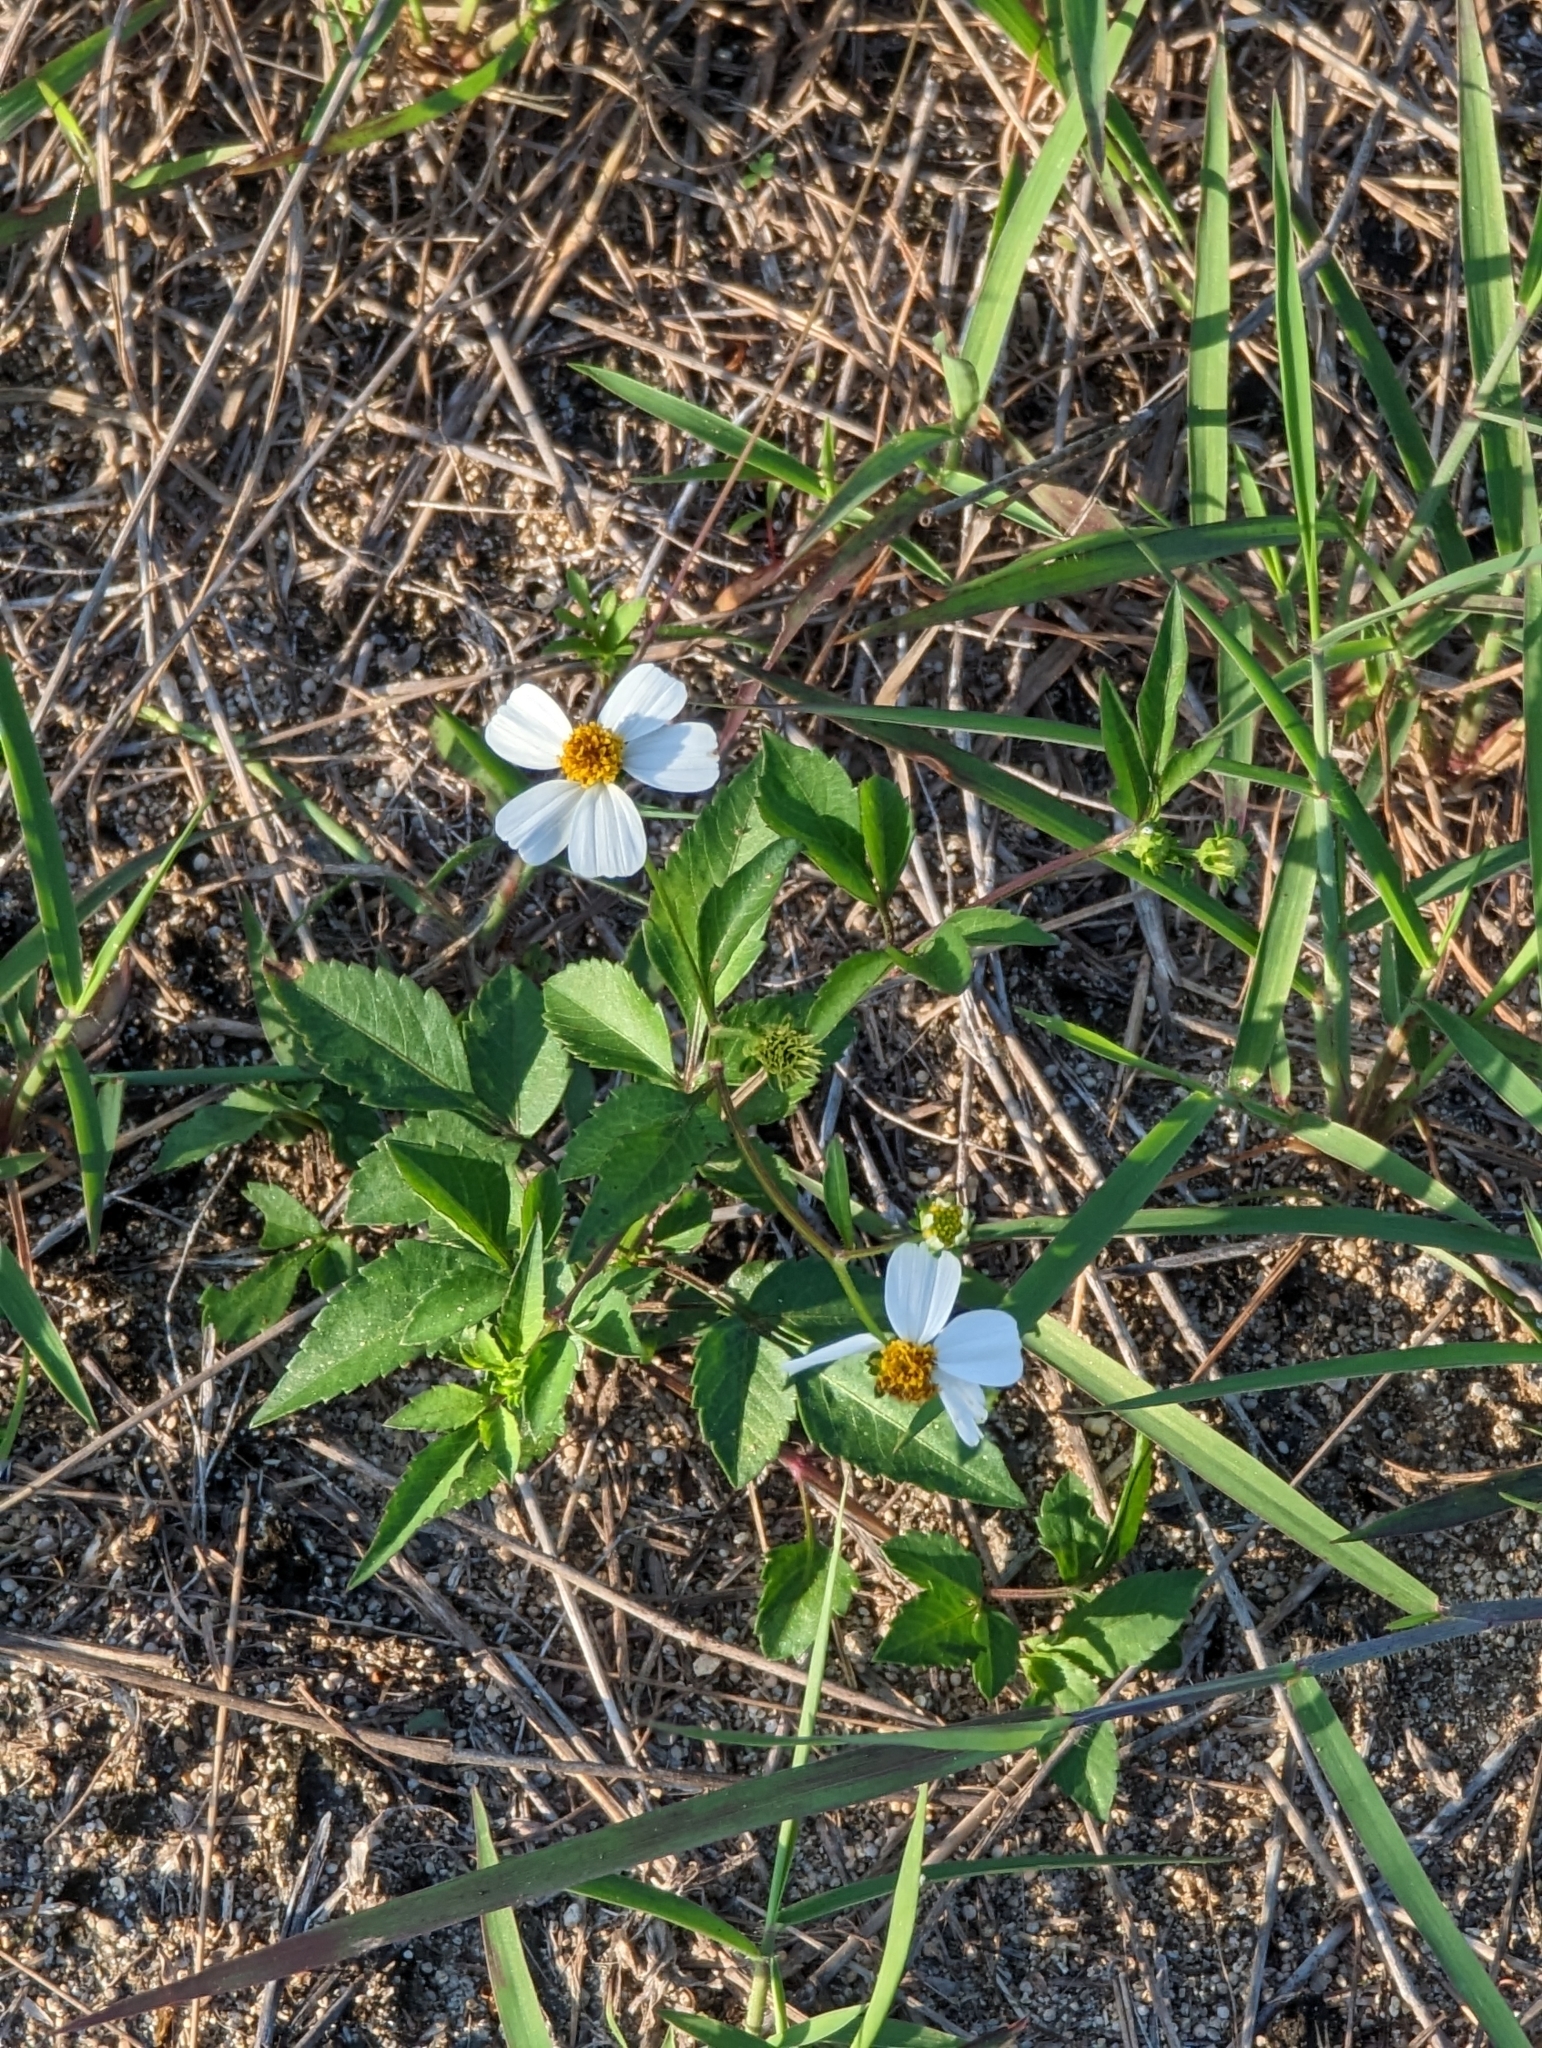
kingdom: Plantae
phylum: Tracheophyta
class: Magnoliopsida
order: Asterales
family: Asteraceae
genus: Bidens
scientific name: Bidens alba
